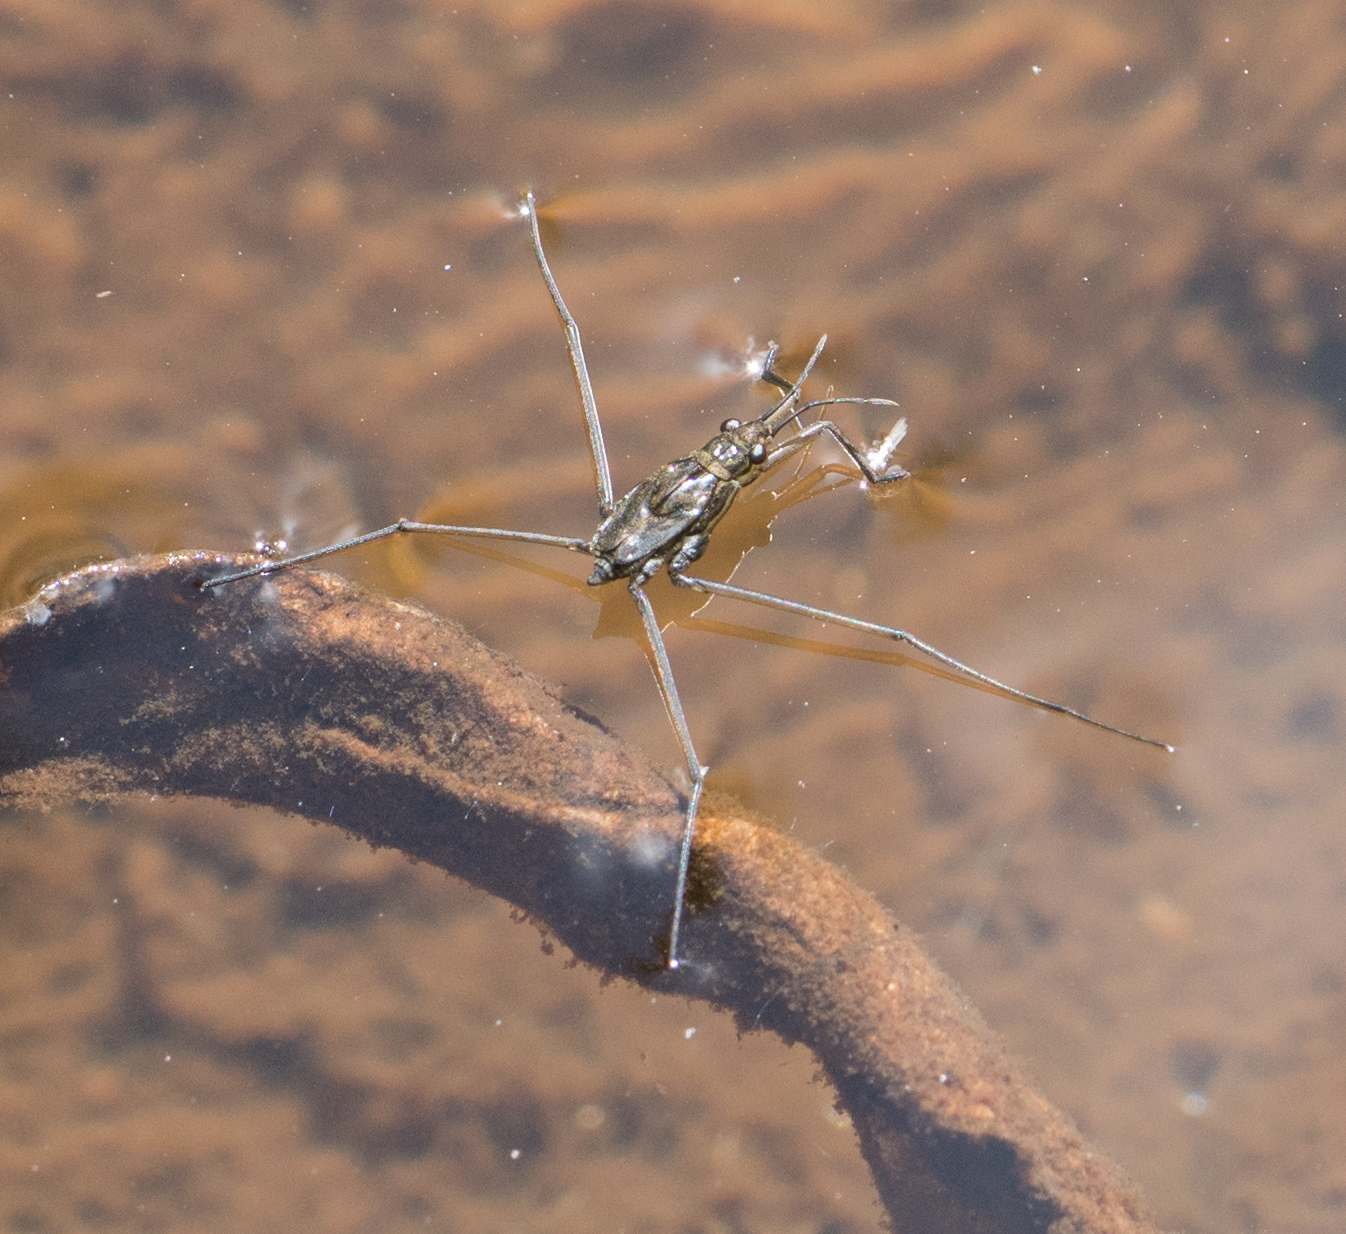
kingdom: Animalia
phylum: Arthropoda
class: Insecta
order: Hemiptera
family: Gerridae
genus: Aquarius
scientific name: Aquarius remigis
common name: Common water strider
